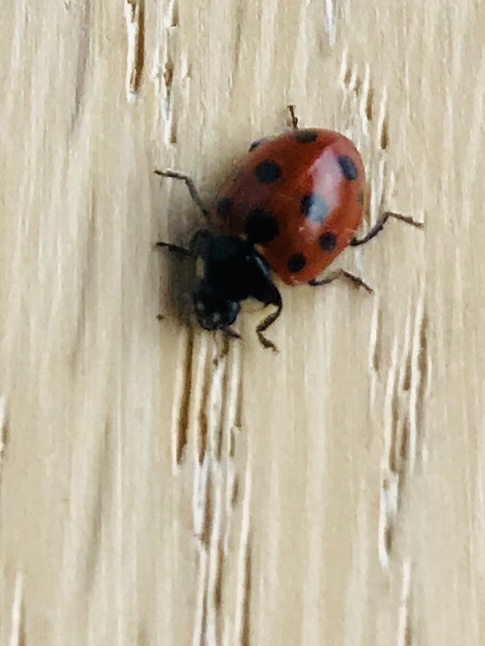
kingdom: Animalia
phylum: Arthropoda
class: Insecta
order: Coleoptera
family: Coccinellidae
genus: Coccinella
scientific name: Coccinella undecimpunctata
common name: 11-spot ladybird
